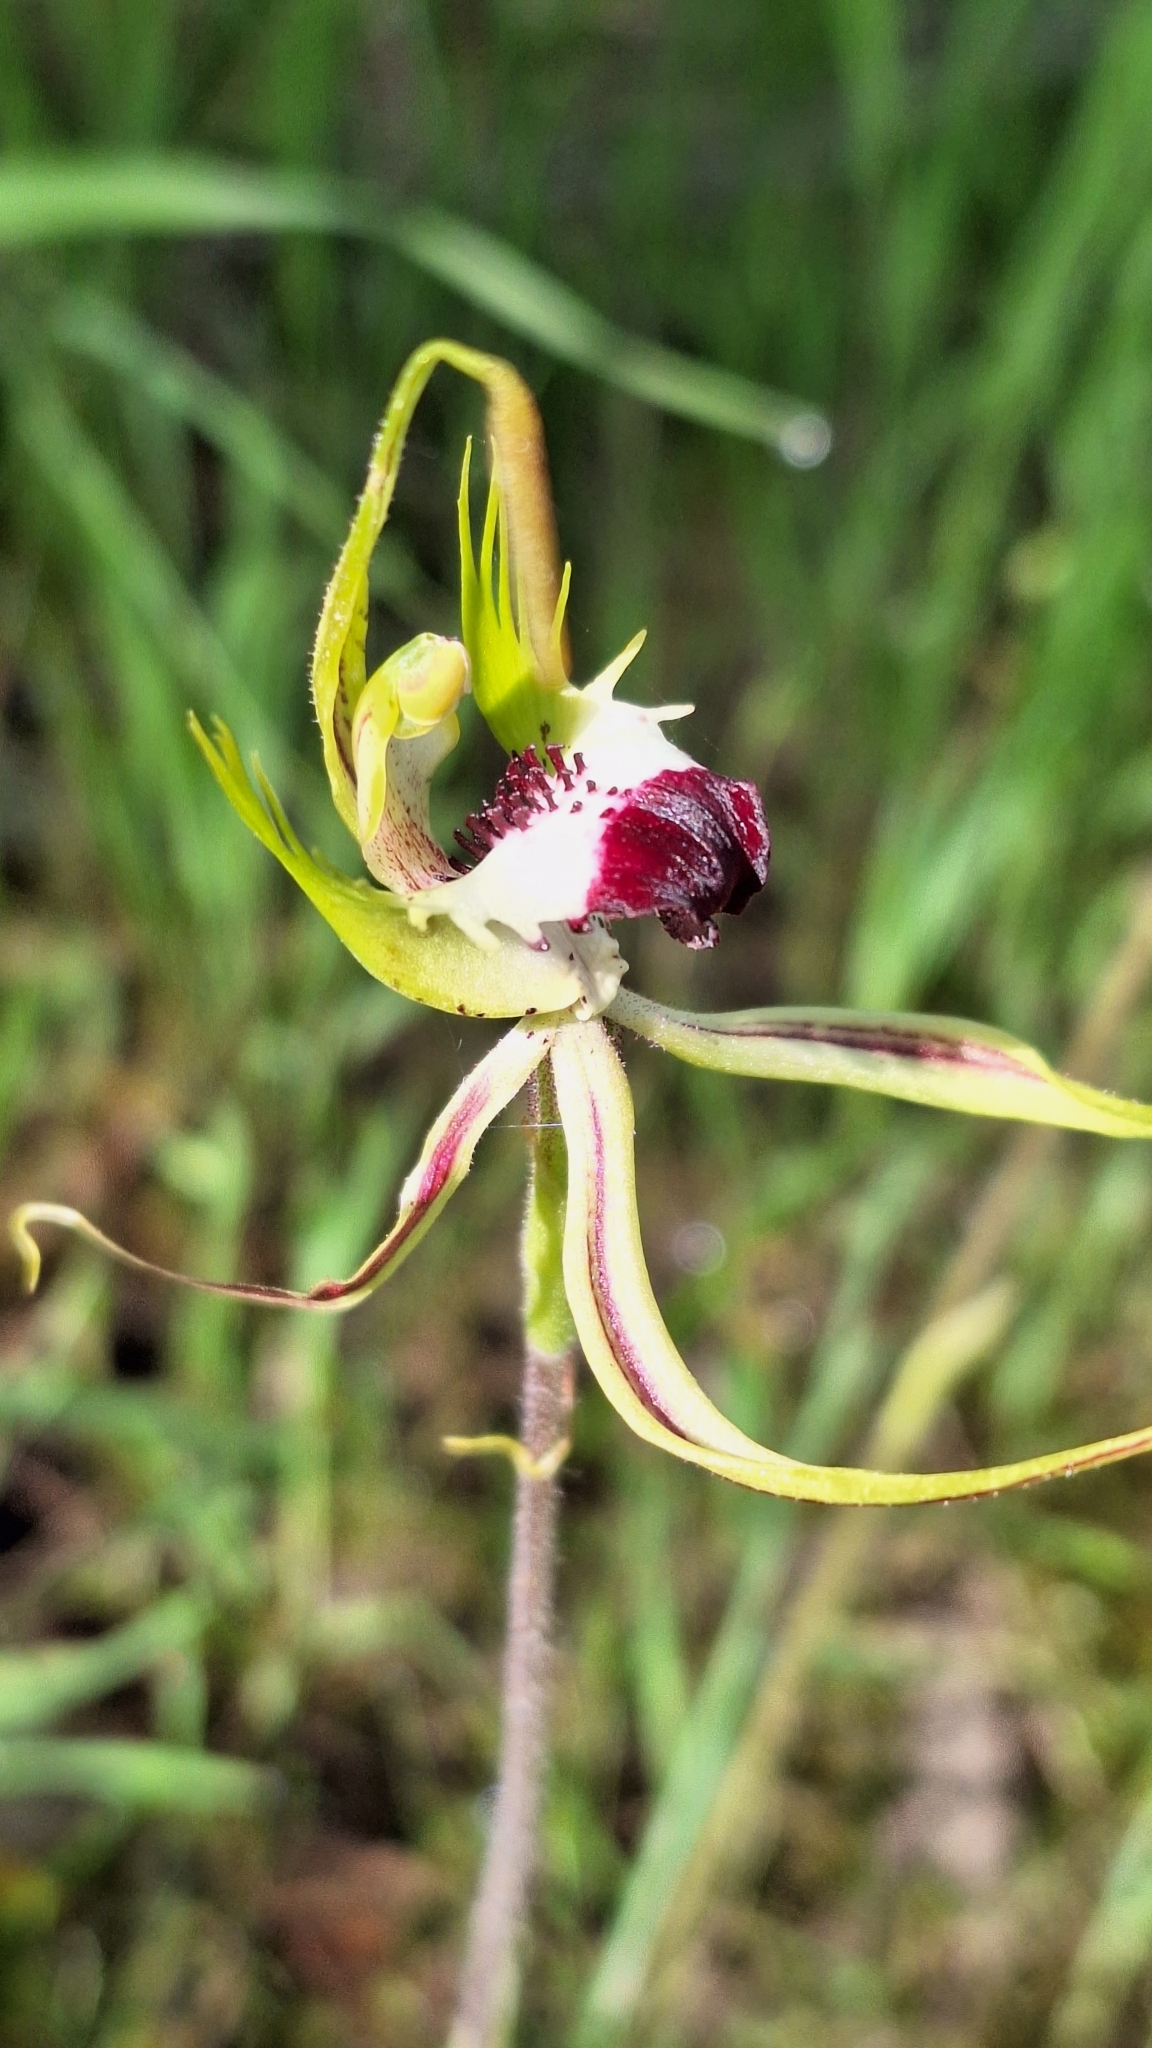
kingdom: Plantae
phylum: Tracheophyta
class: Liliopsida
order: Asparagales
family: Orchidaceae
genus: Caladenia
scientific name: Caladenia tentaculata
